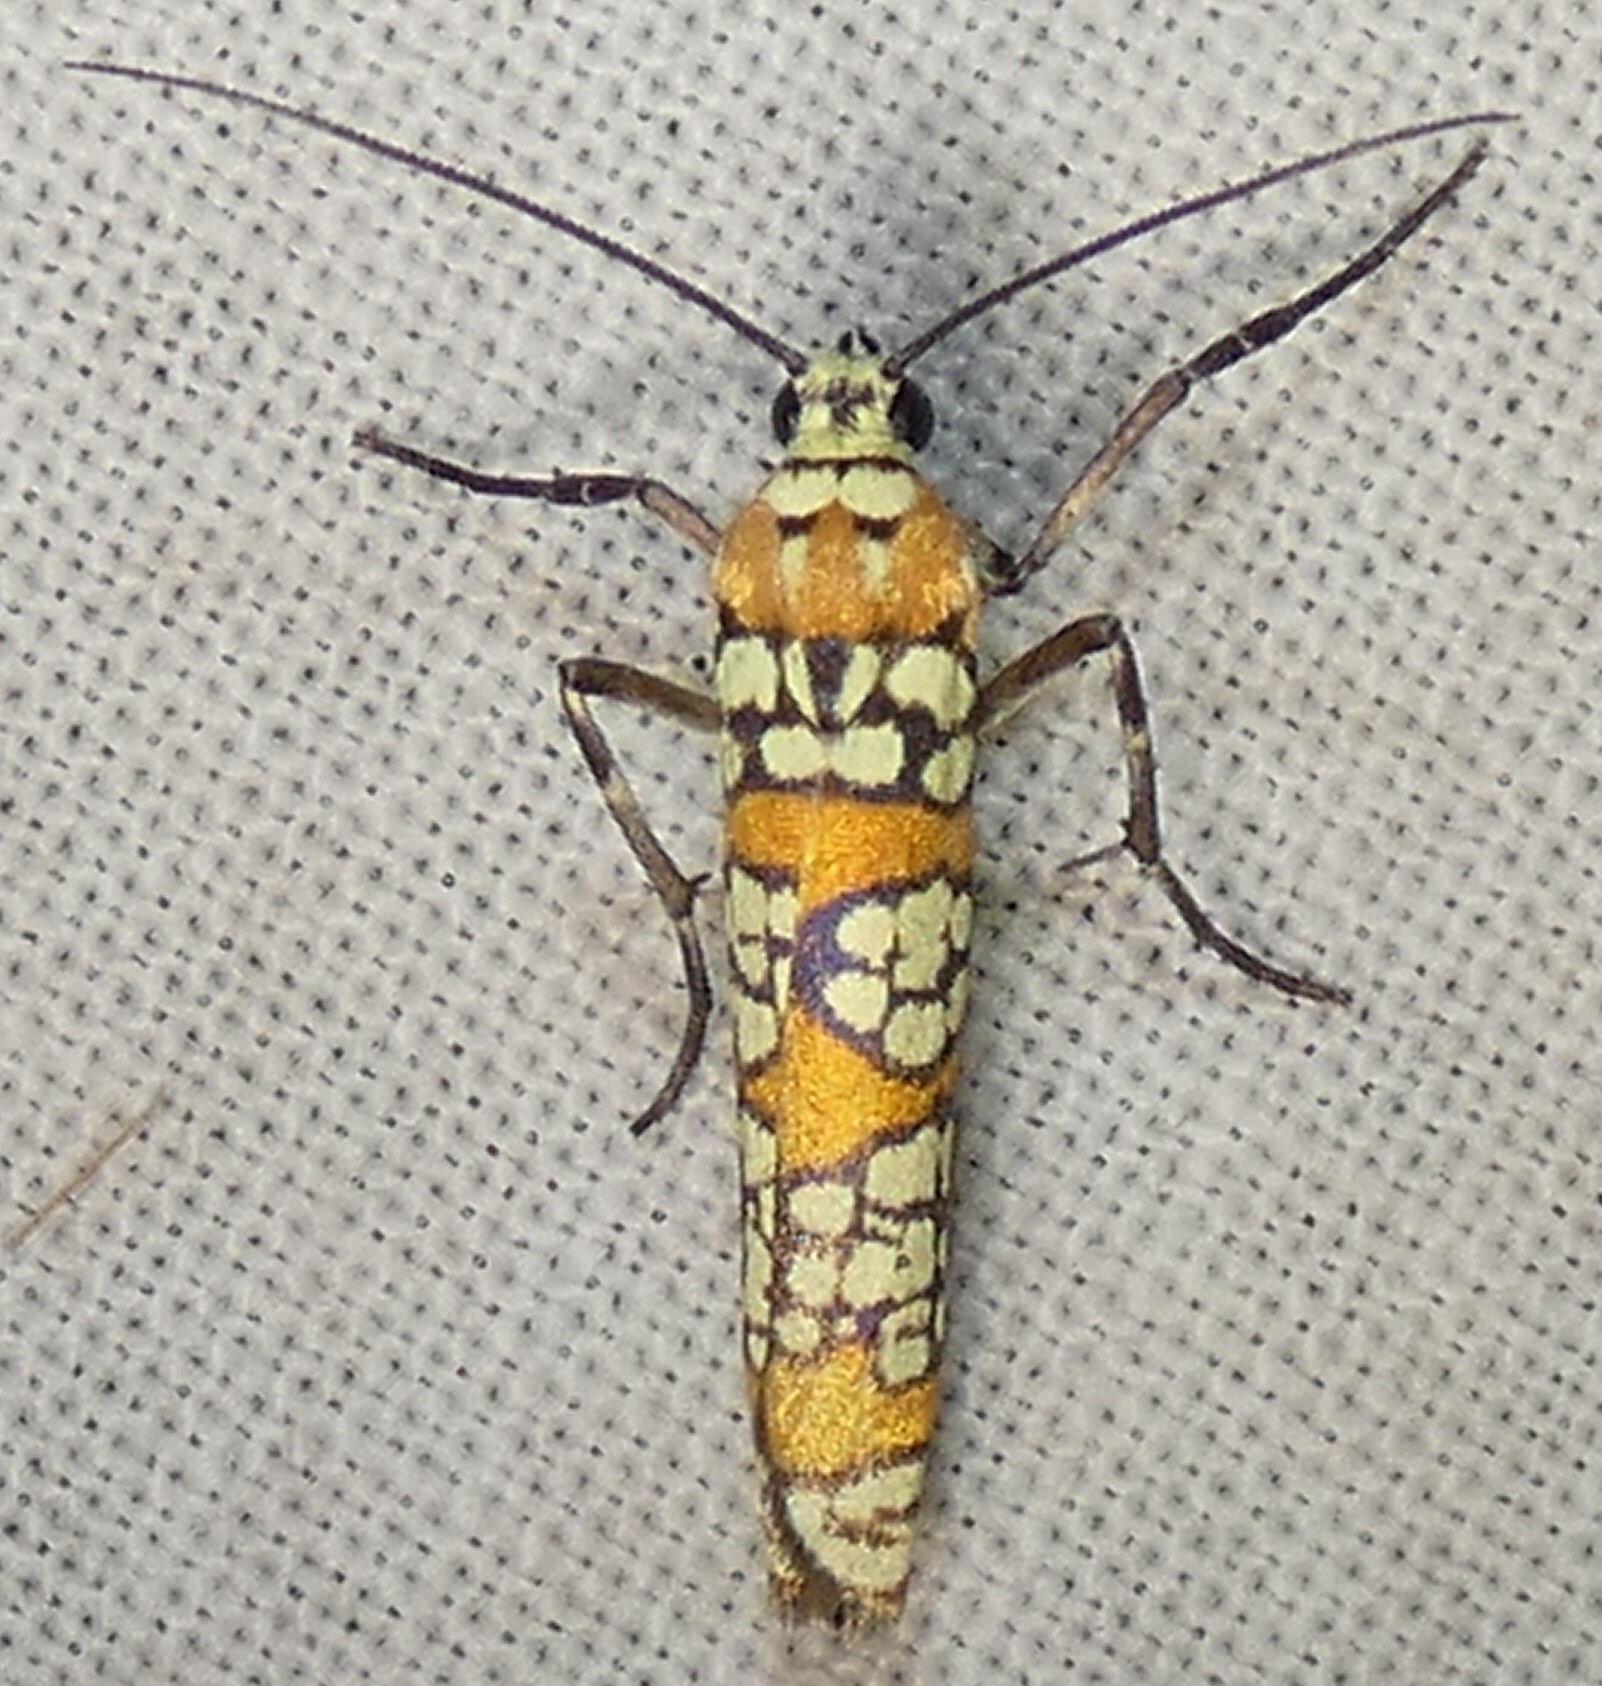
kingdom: Animalia
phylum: Arthropoda
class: Insecta
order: Lepidoptera
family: Attevidae
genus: Atteva
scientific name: Atteva punctella
